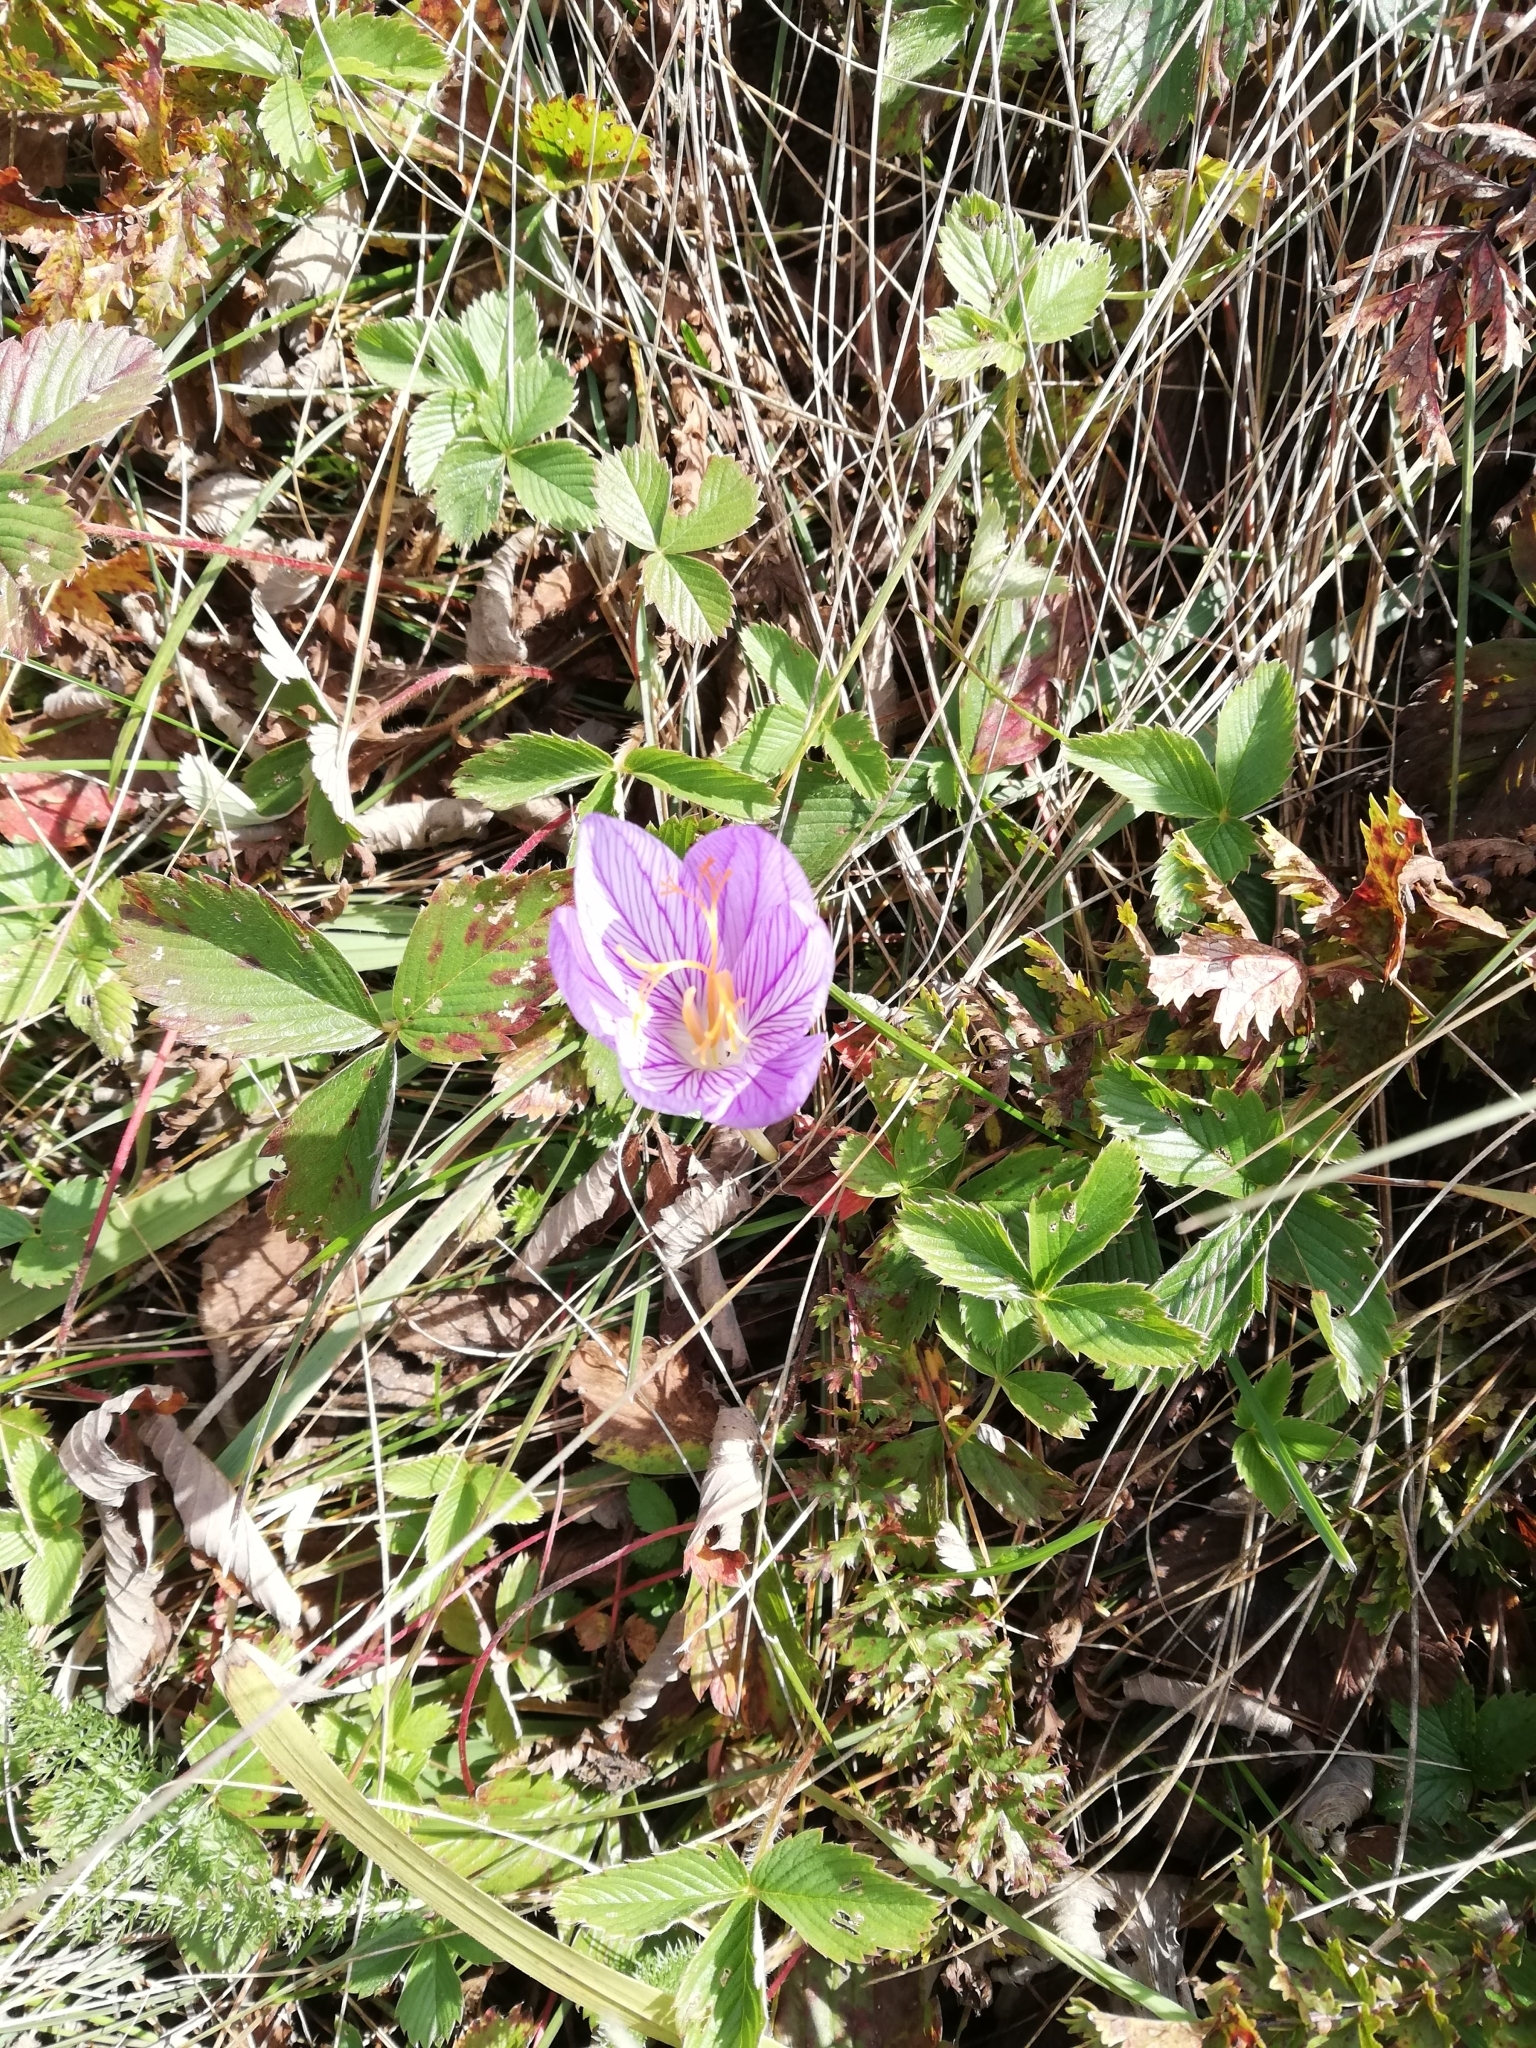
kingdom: Plantae
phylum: Tracheophyta
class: Liliopsida
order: Asparagales
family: Iridaceae
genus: Crocus
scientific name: Crocus speciosus
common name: Bieberstein's crocus
